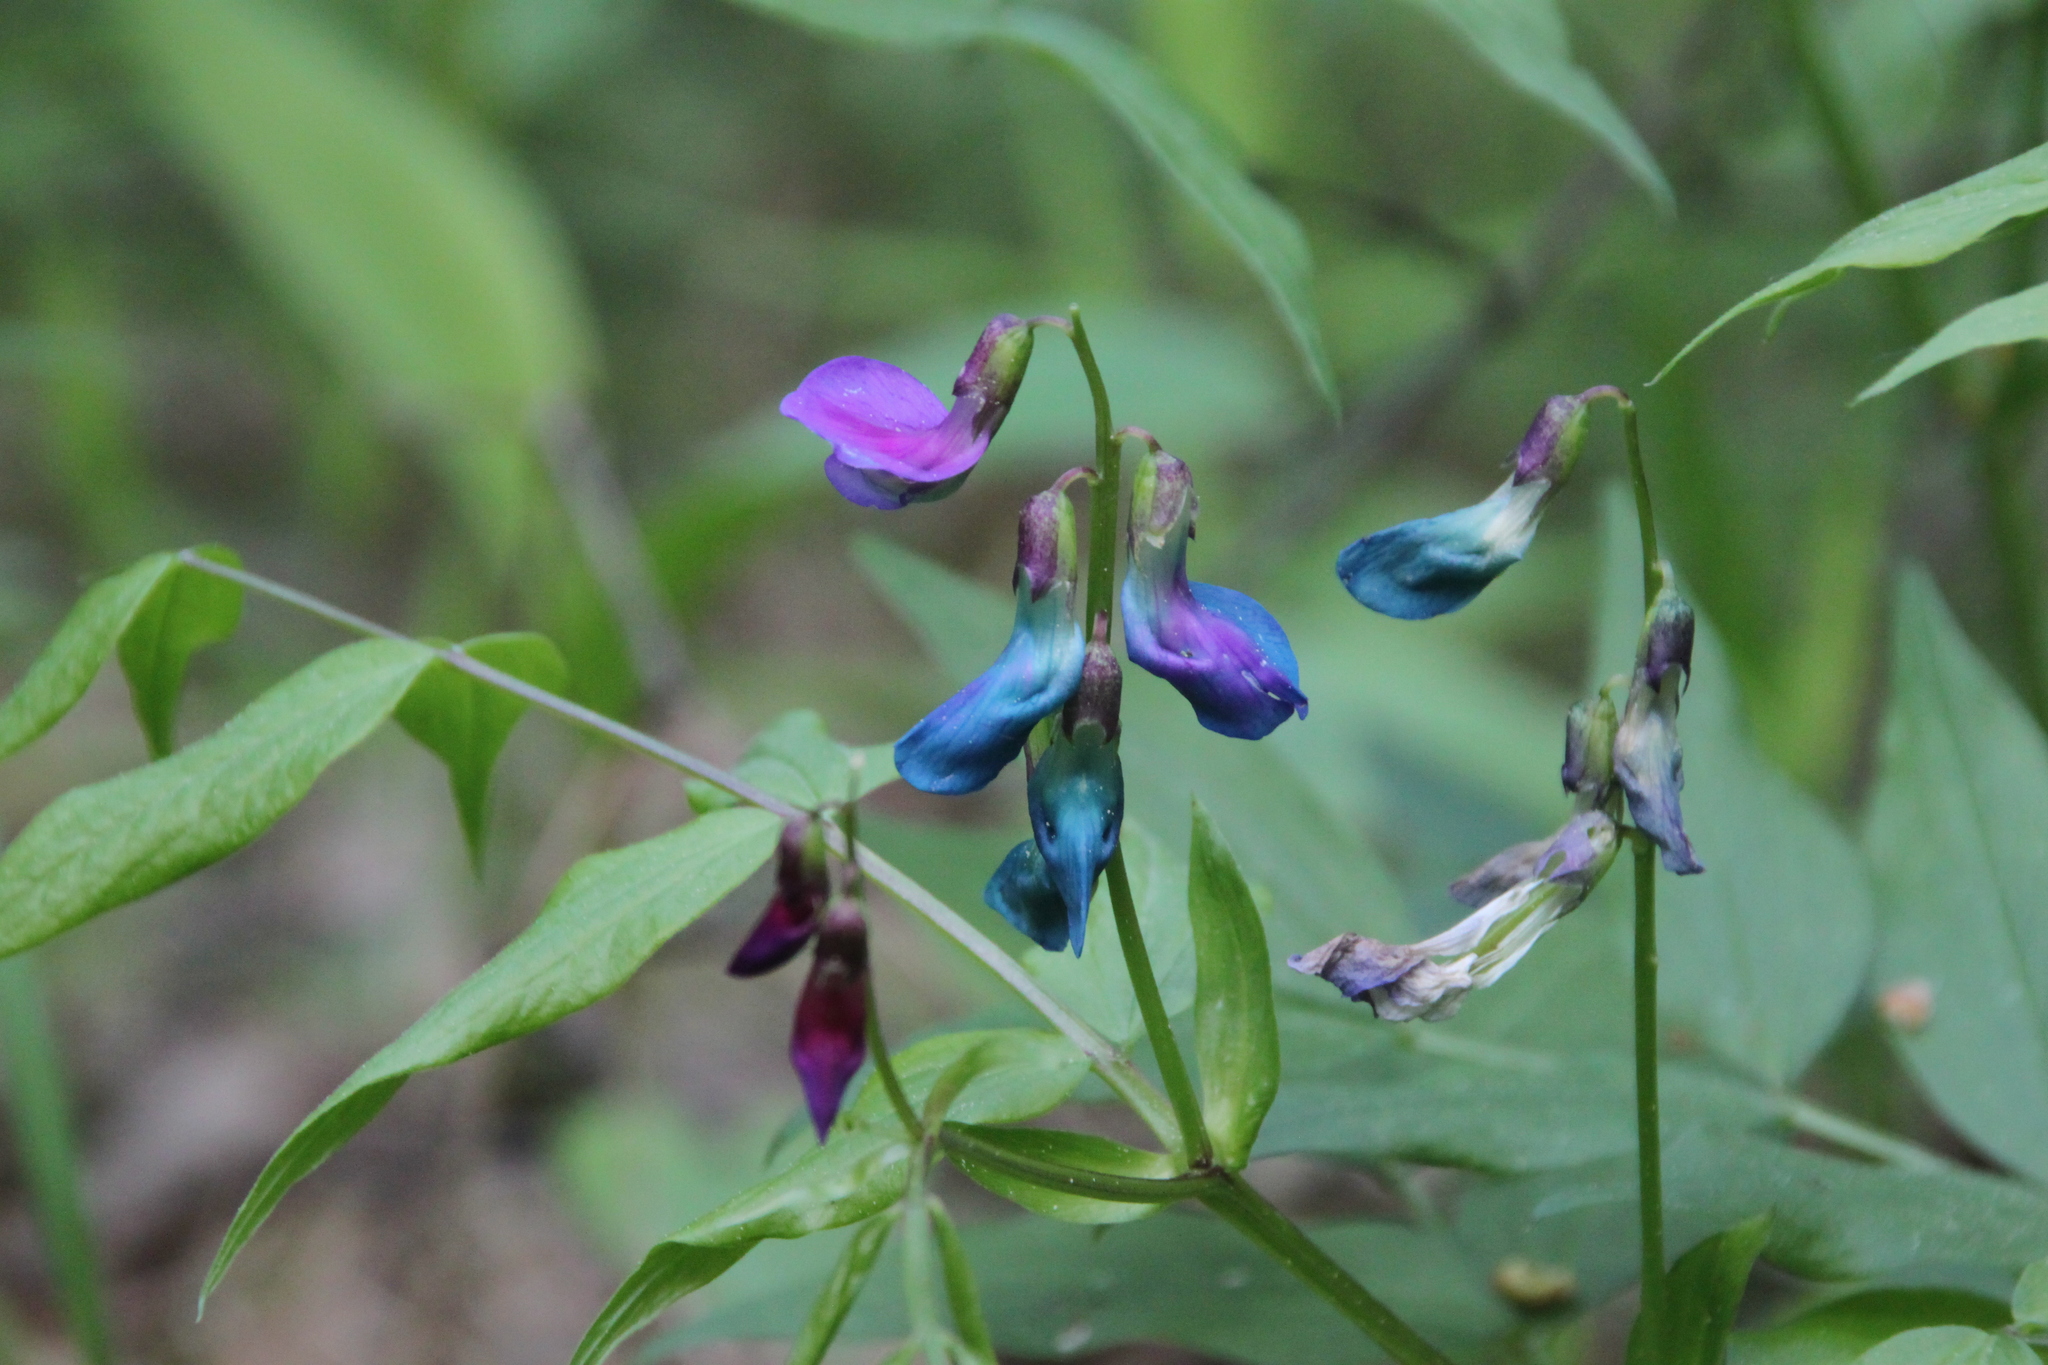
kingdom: Plantae
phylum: Tracheophyta
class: Magnoliopsida
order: Fabales
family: Fabaceae
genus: Lathyrus
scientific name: Lathyrus vernus
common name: Spring pea
